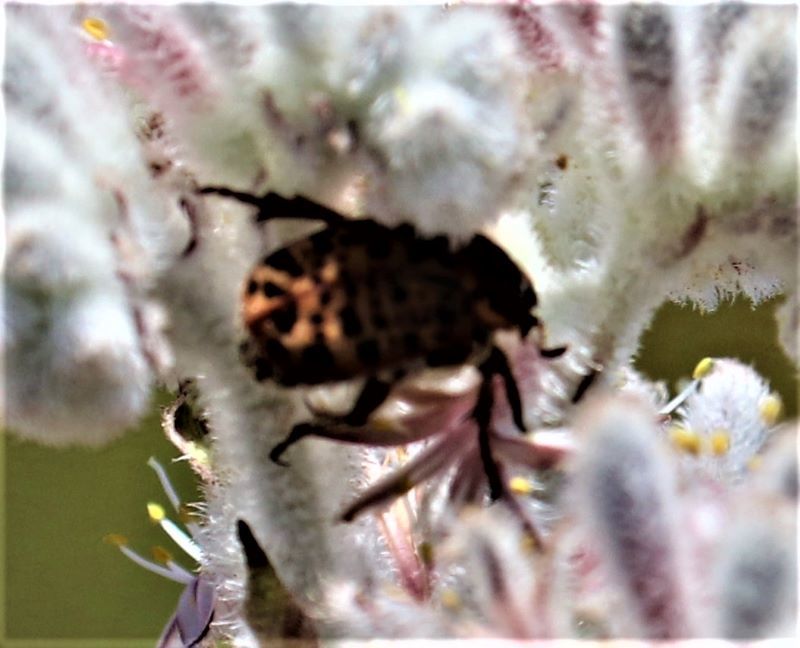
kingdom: Animalia
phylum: Arthropoda
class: Insecta
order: Coleoptera
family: Scarabaeidae
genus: Atrichelaphinis
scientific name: Atrichelaphinis tigrina
